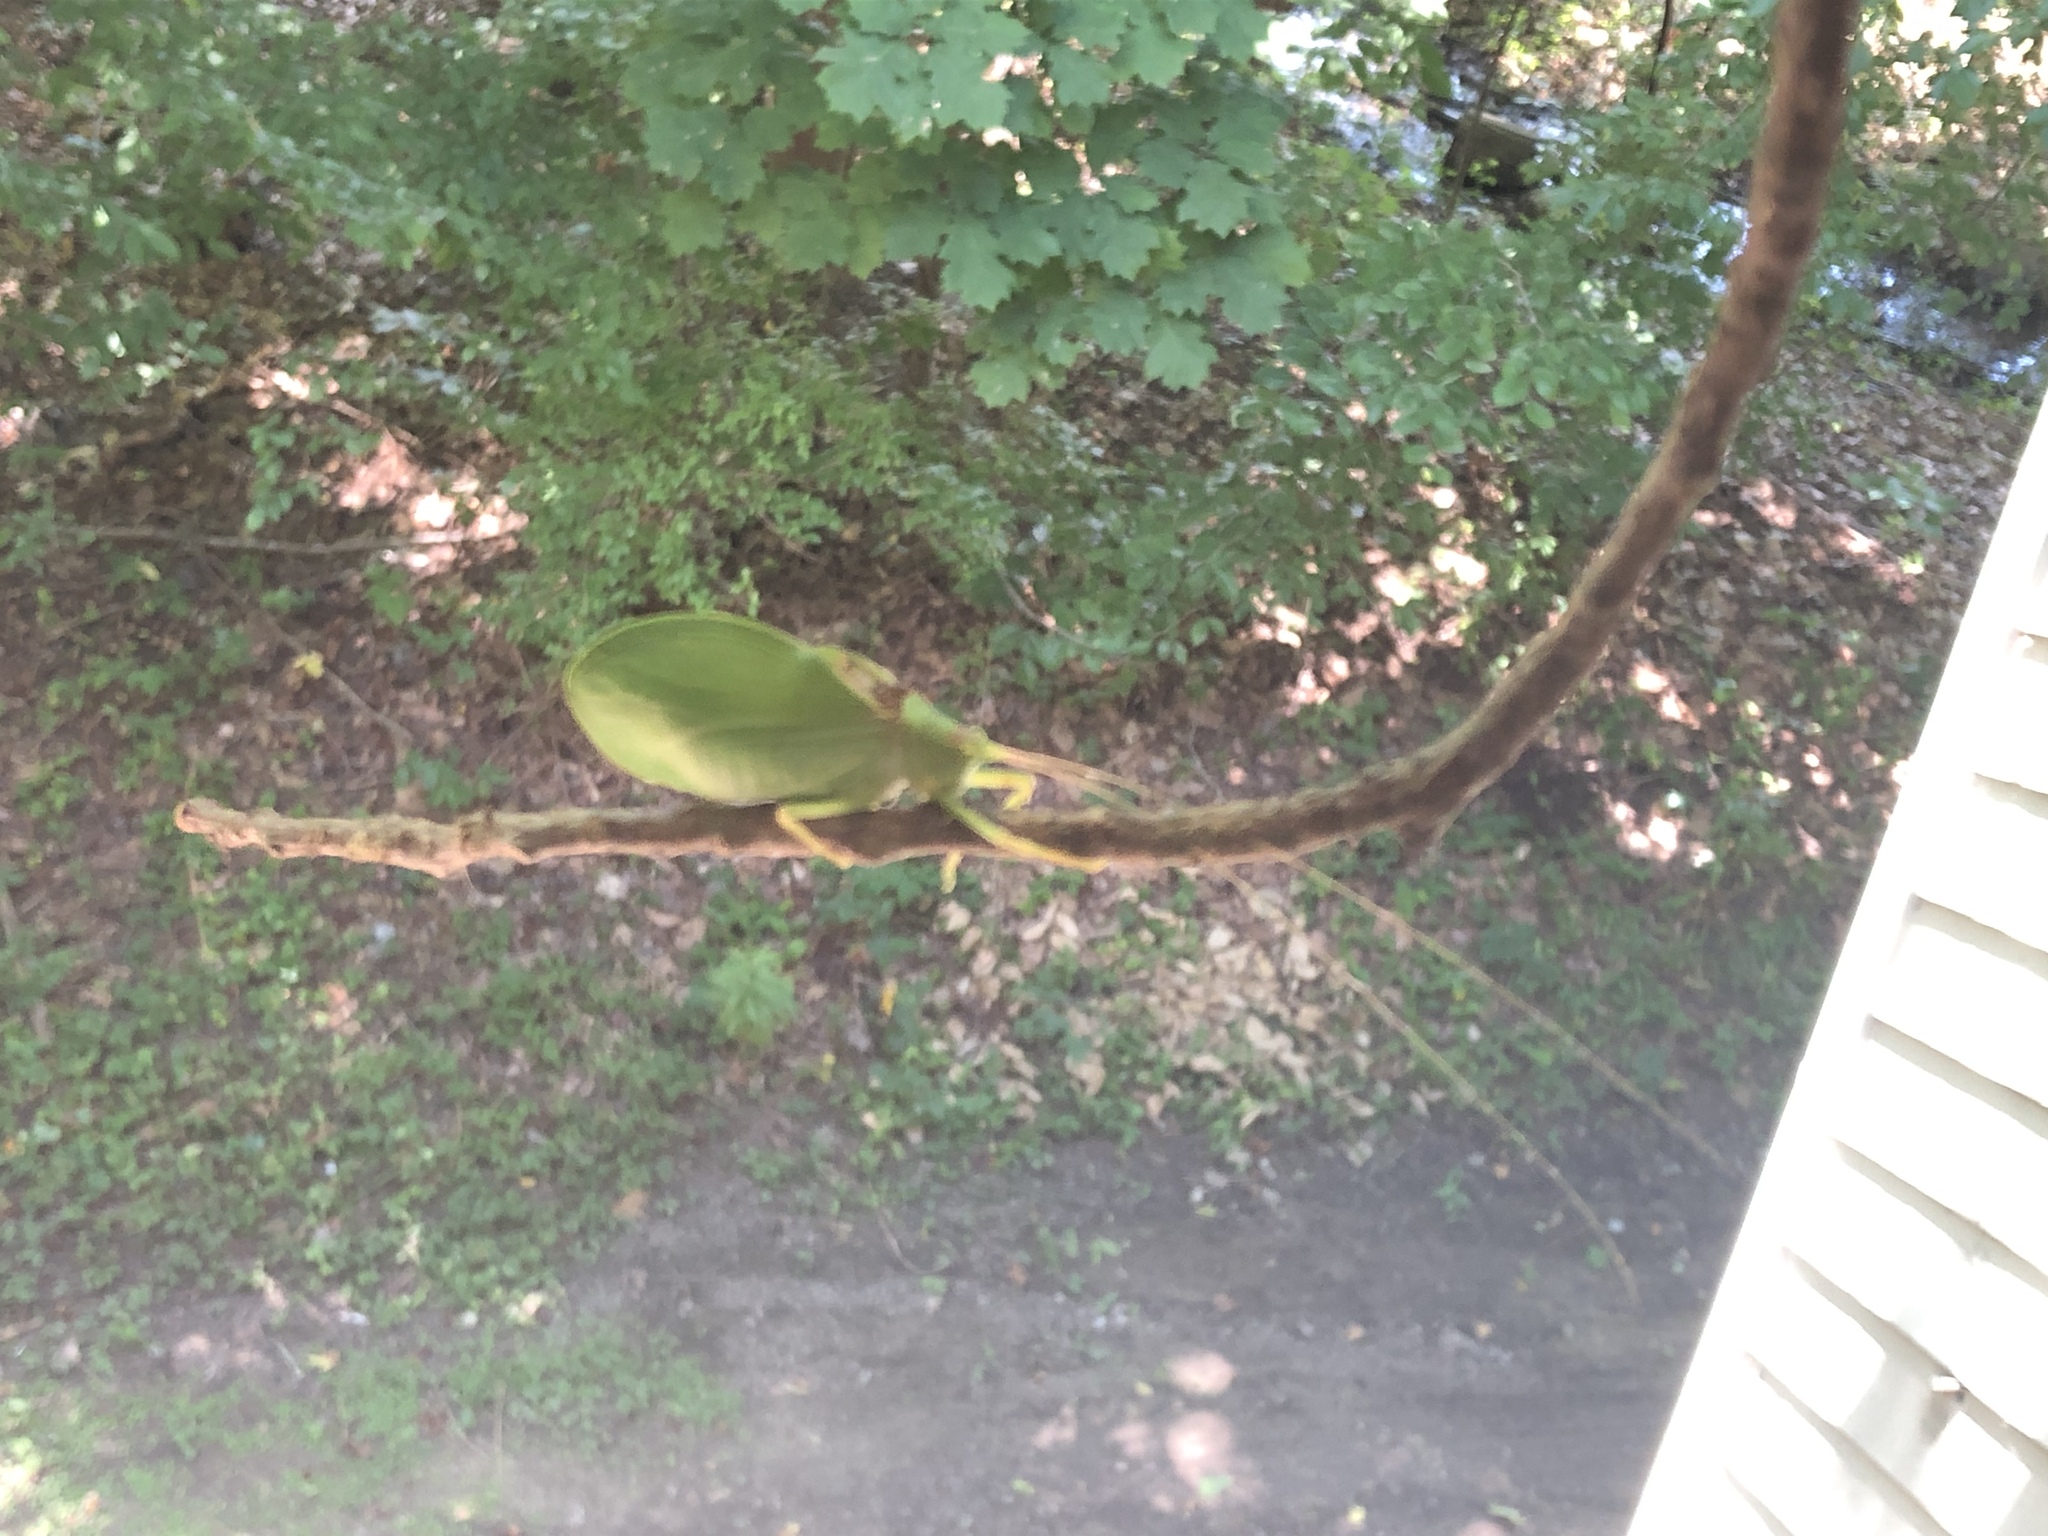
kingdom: Animalia
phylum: Arthropoda
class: Insecta
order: Orthoptera
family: Tettigoniidae
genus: Pterophylla
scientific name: Pterophylla camellifolia
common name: Common true katydid
